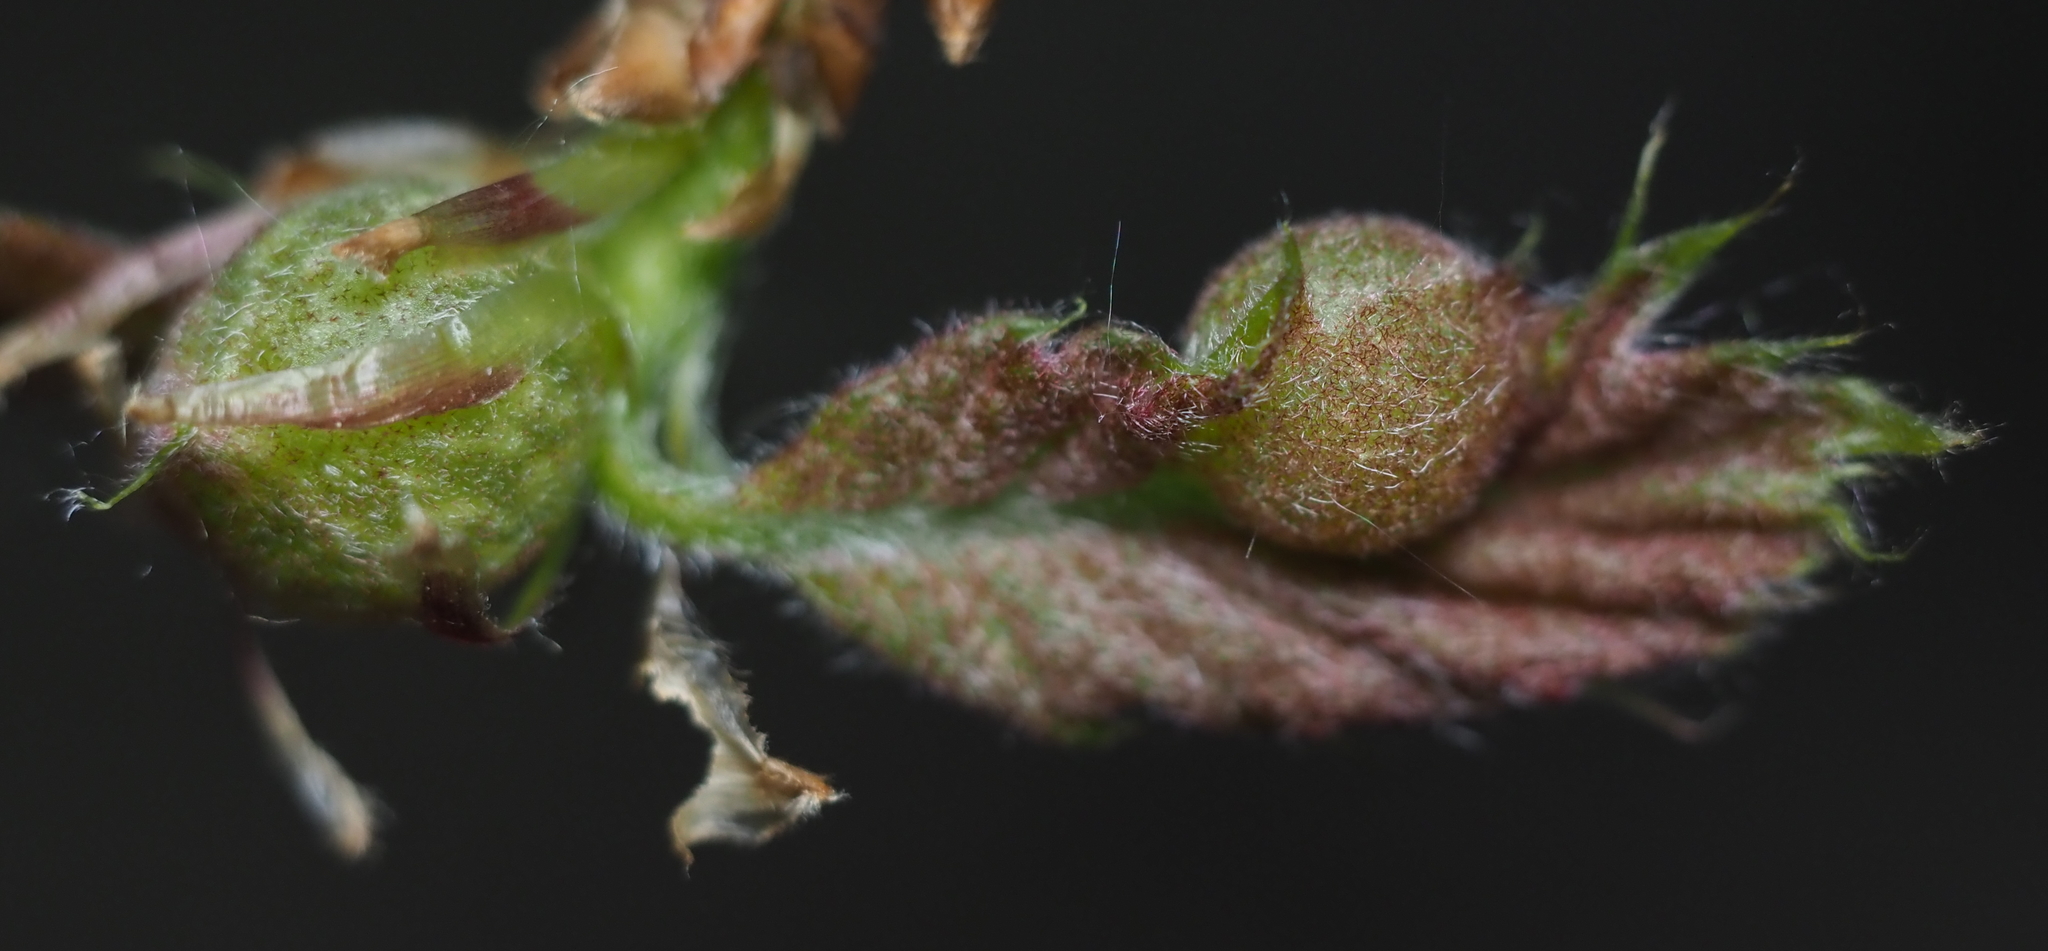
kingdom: Animalia
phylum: Arthropoda
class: Insecta
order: Hymenoptera
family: Cynipidae
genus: Dryocosmus
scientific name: Dryocosmus quercuspalustris
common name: Succulent oak gall wasp
